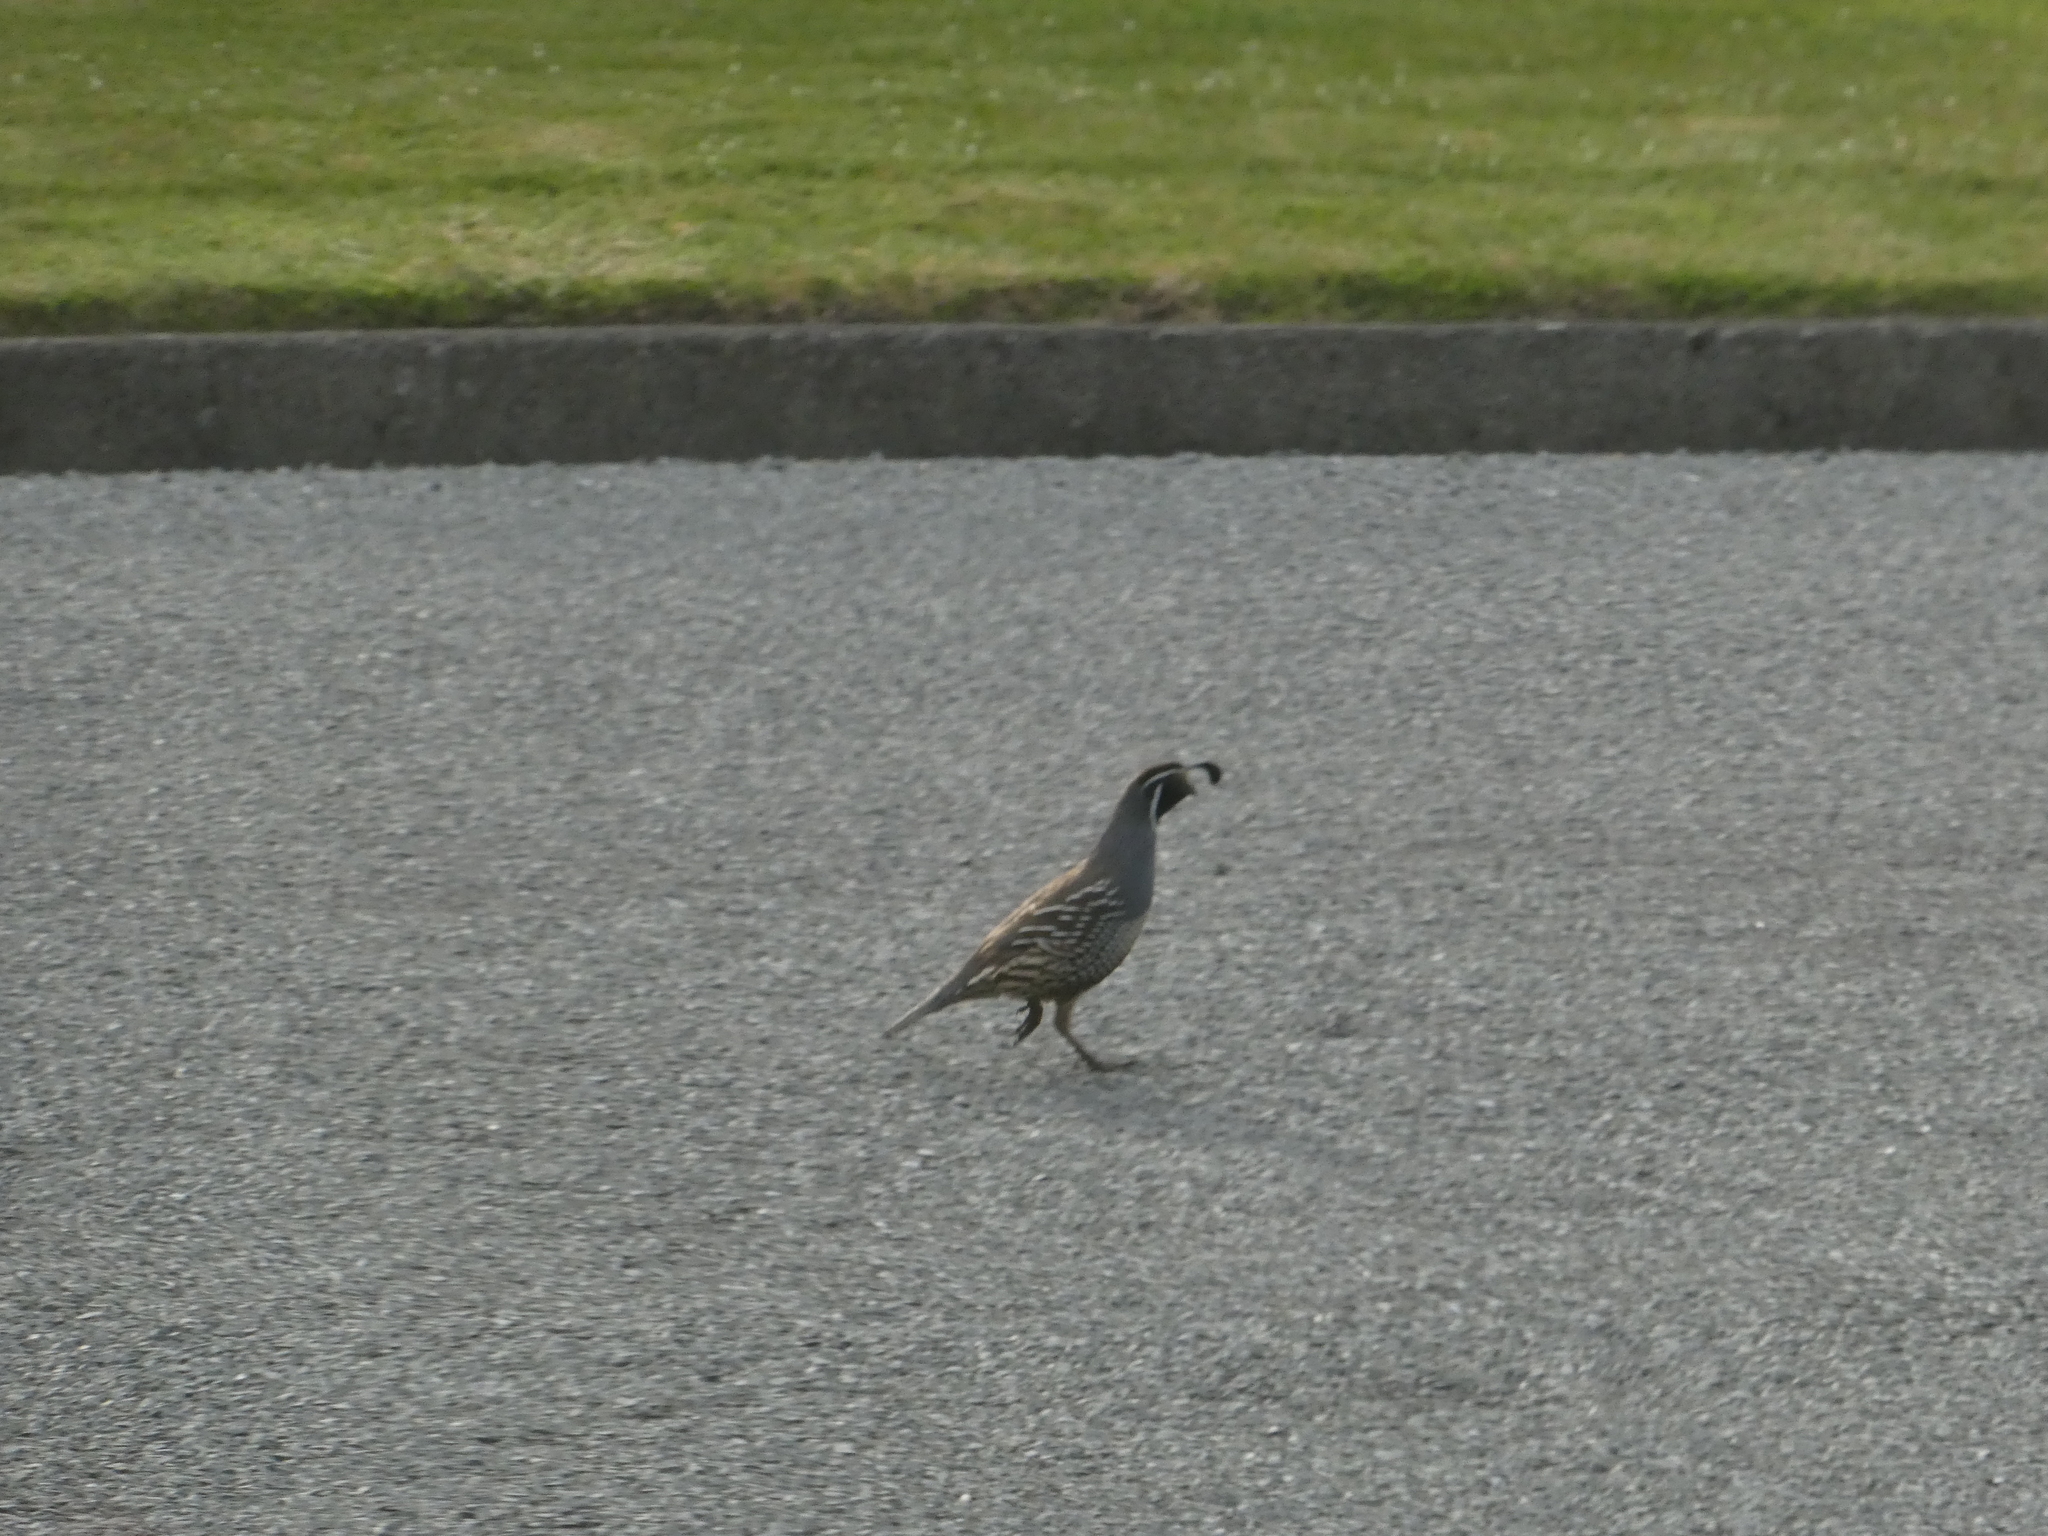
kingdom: Animalia
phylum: Chordata
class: Aves
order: Galliformes
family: Odontophoridae
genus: Callipepla
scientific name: Callipepla californica
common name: California quail
